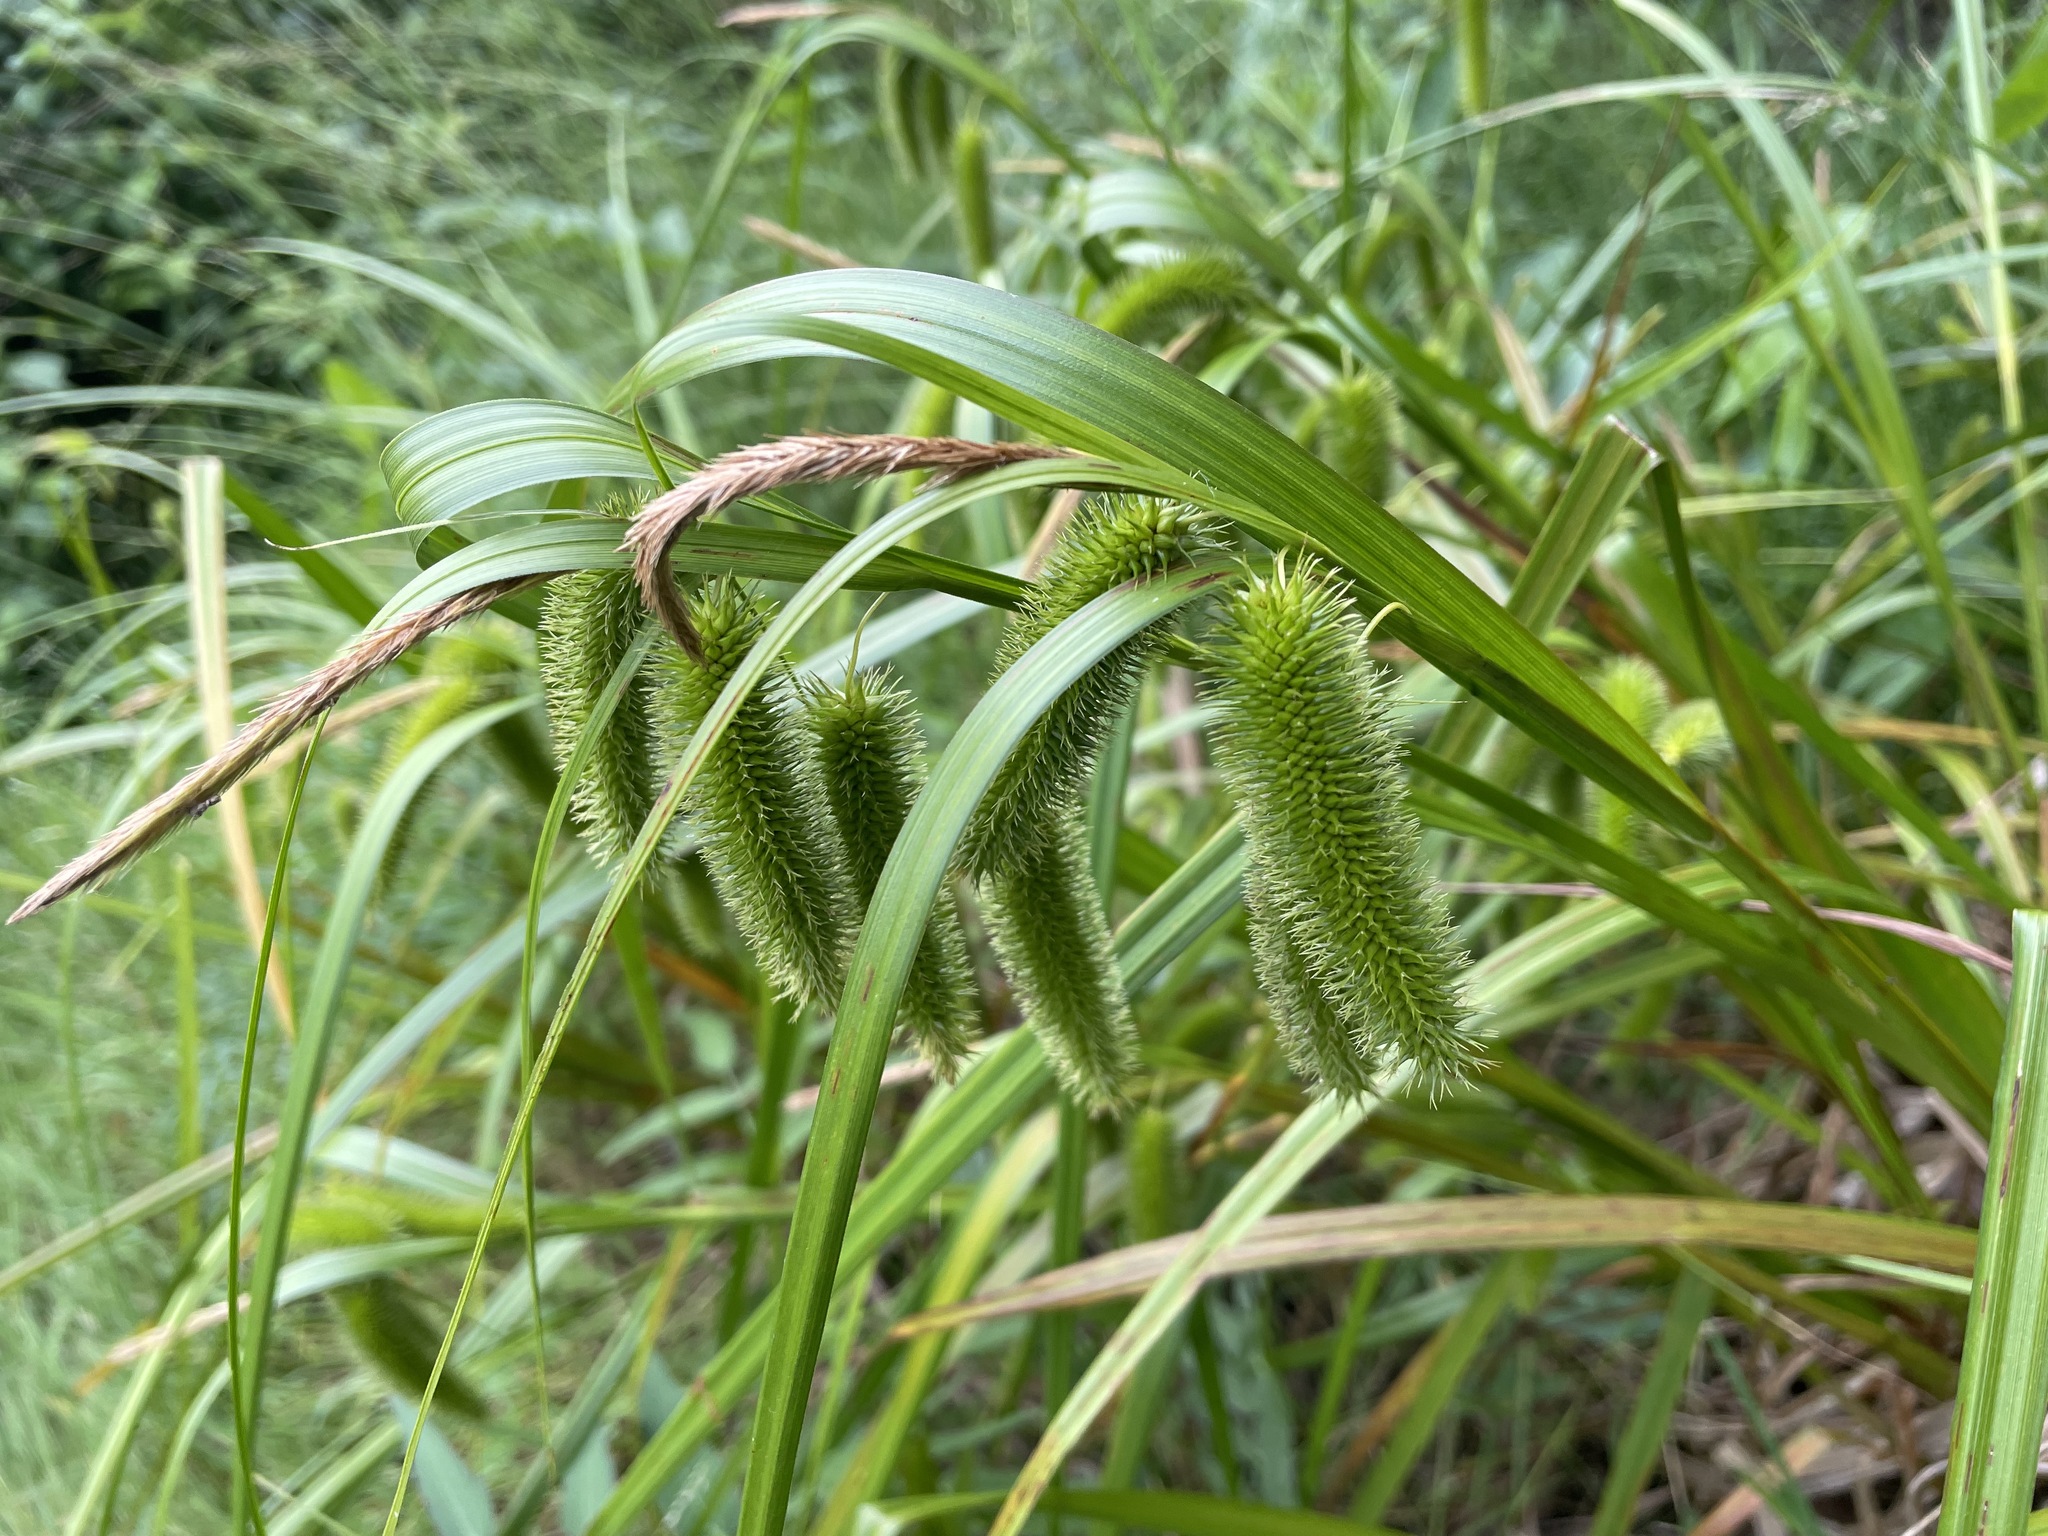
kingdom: Plantae
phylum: Tracheophyta
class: Liliopsida
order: Poales
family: Cyperaceae
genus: Carex
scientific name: Carex comosa
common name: Bristly sedge
